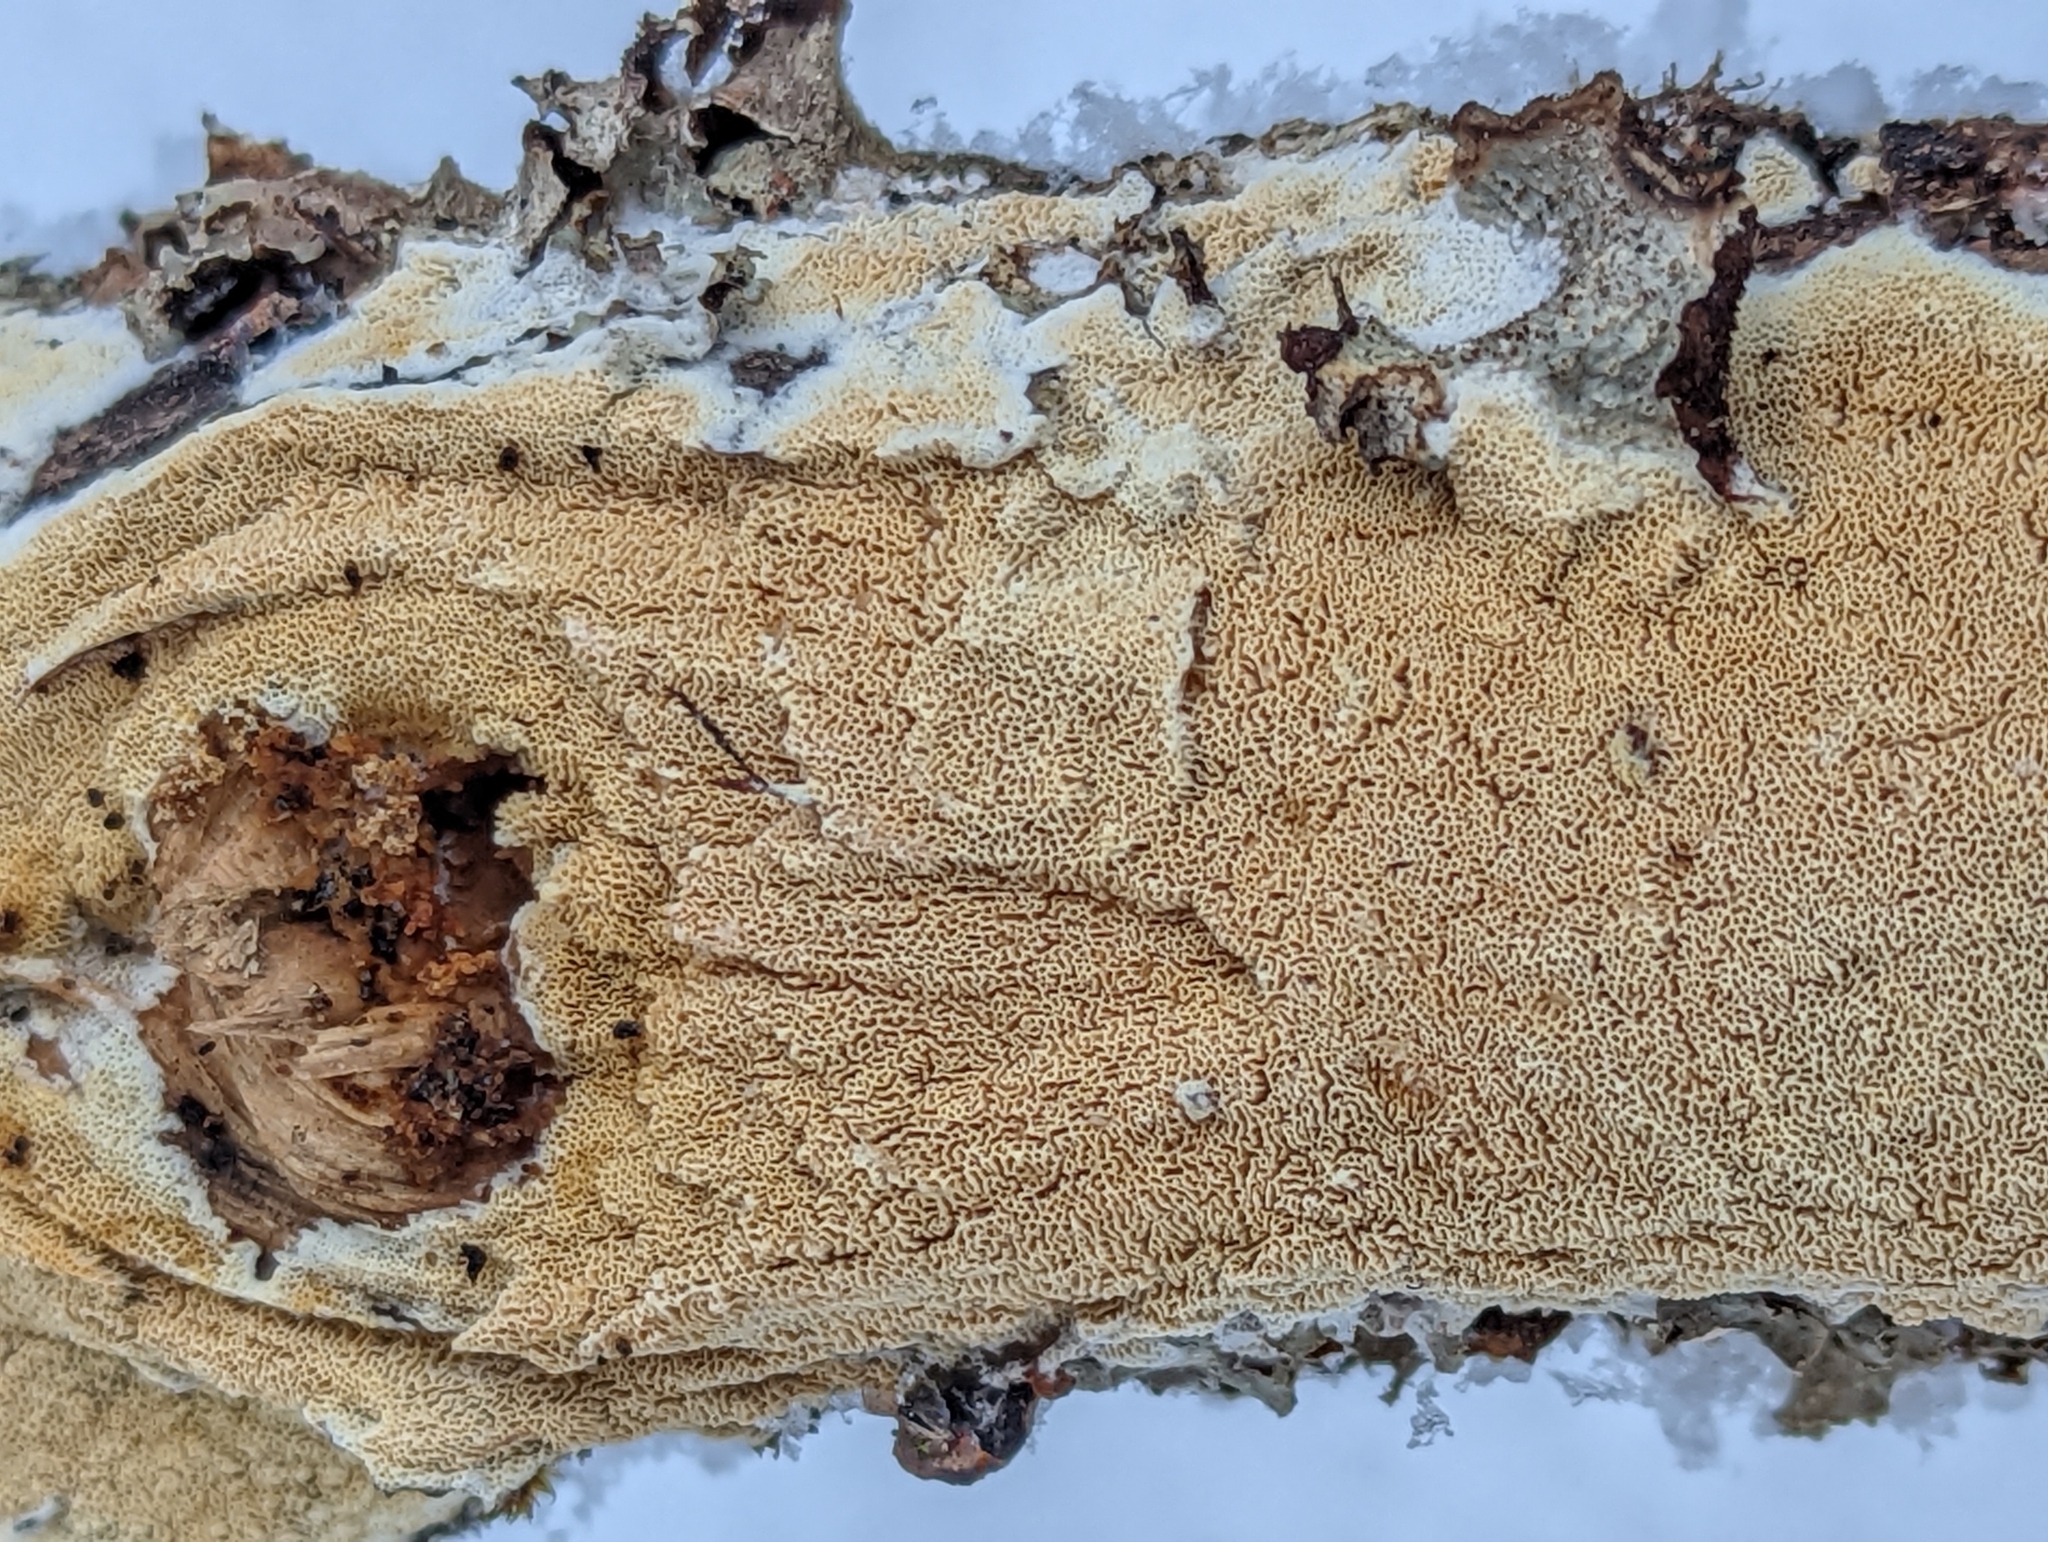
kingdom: Fungi
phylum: Basidiomycota
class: Agaricomycetes
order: Hymenochaetales
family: Schizoporaceae
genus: Schizopora
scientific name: Schizopora paradoxa
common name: Split porecrust
